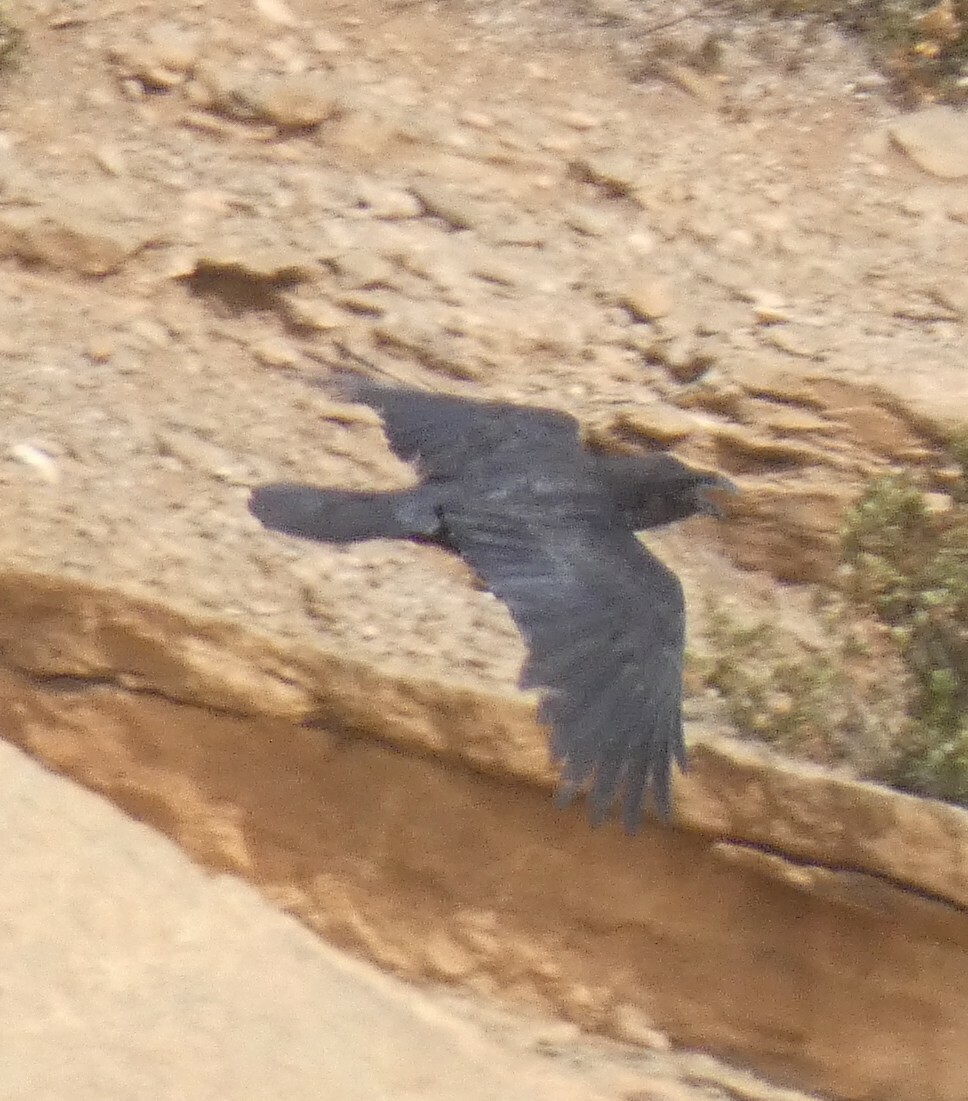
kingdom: Animalia
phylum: Chordata
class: Aves
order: Passeriformes
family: Corvidae
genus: Corvus
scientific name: Corvus corax
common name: Common raven
